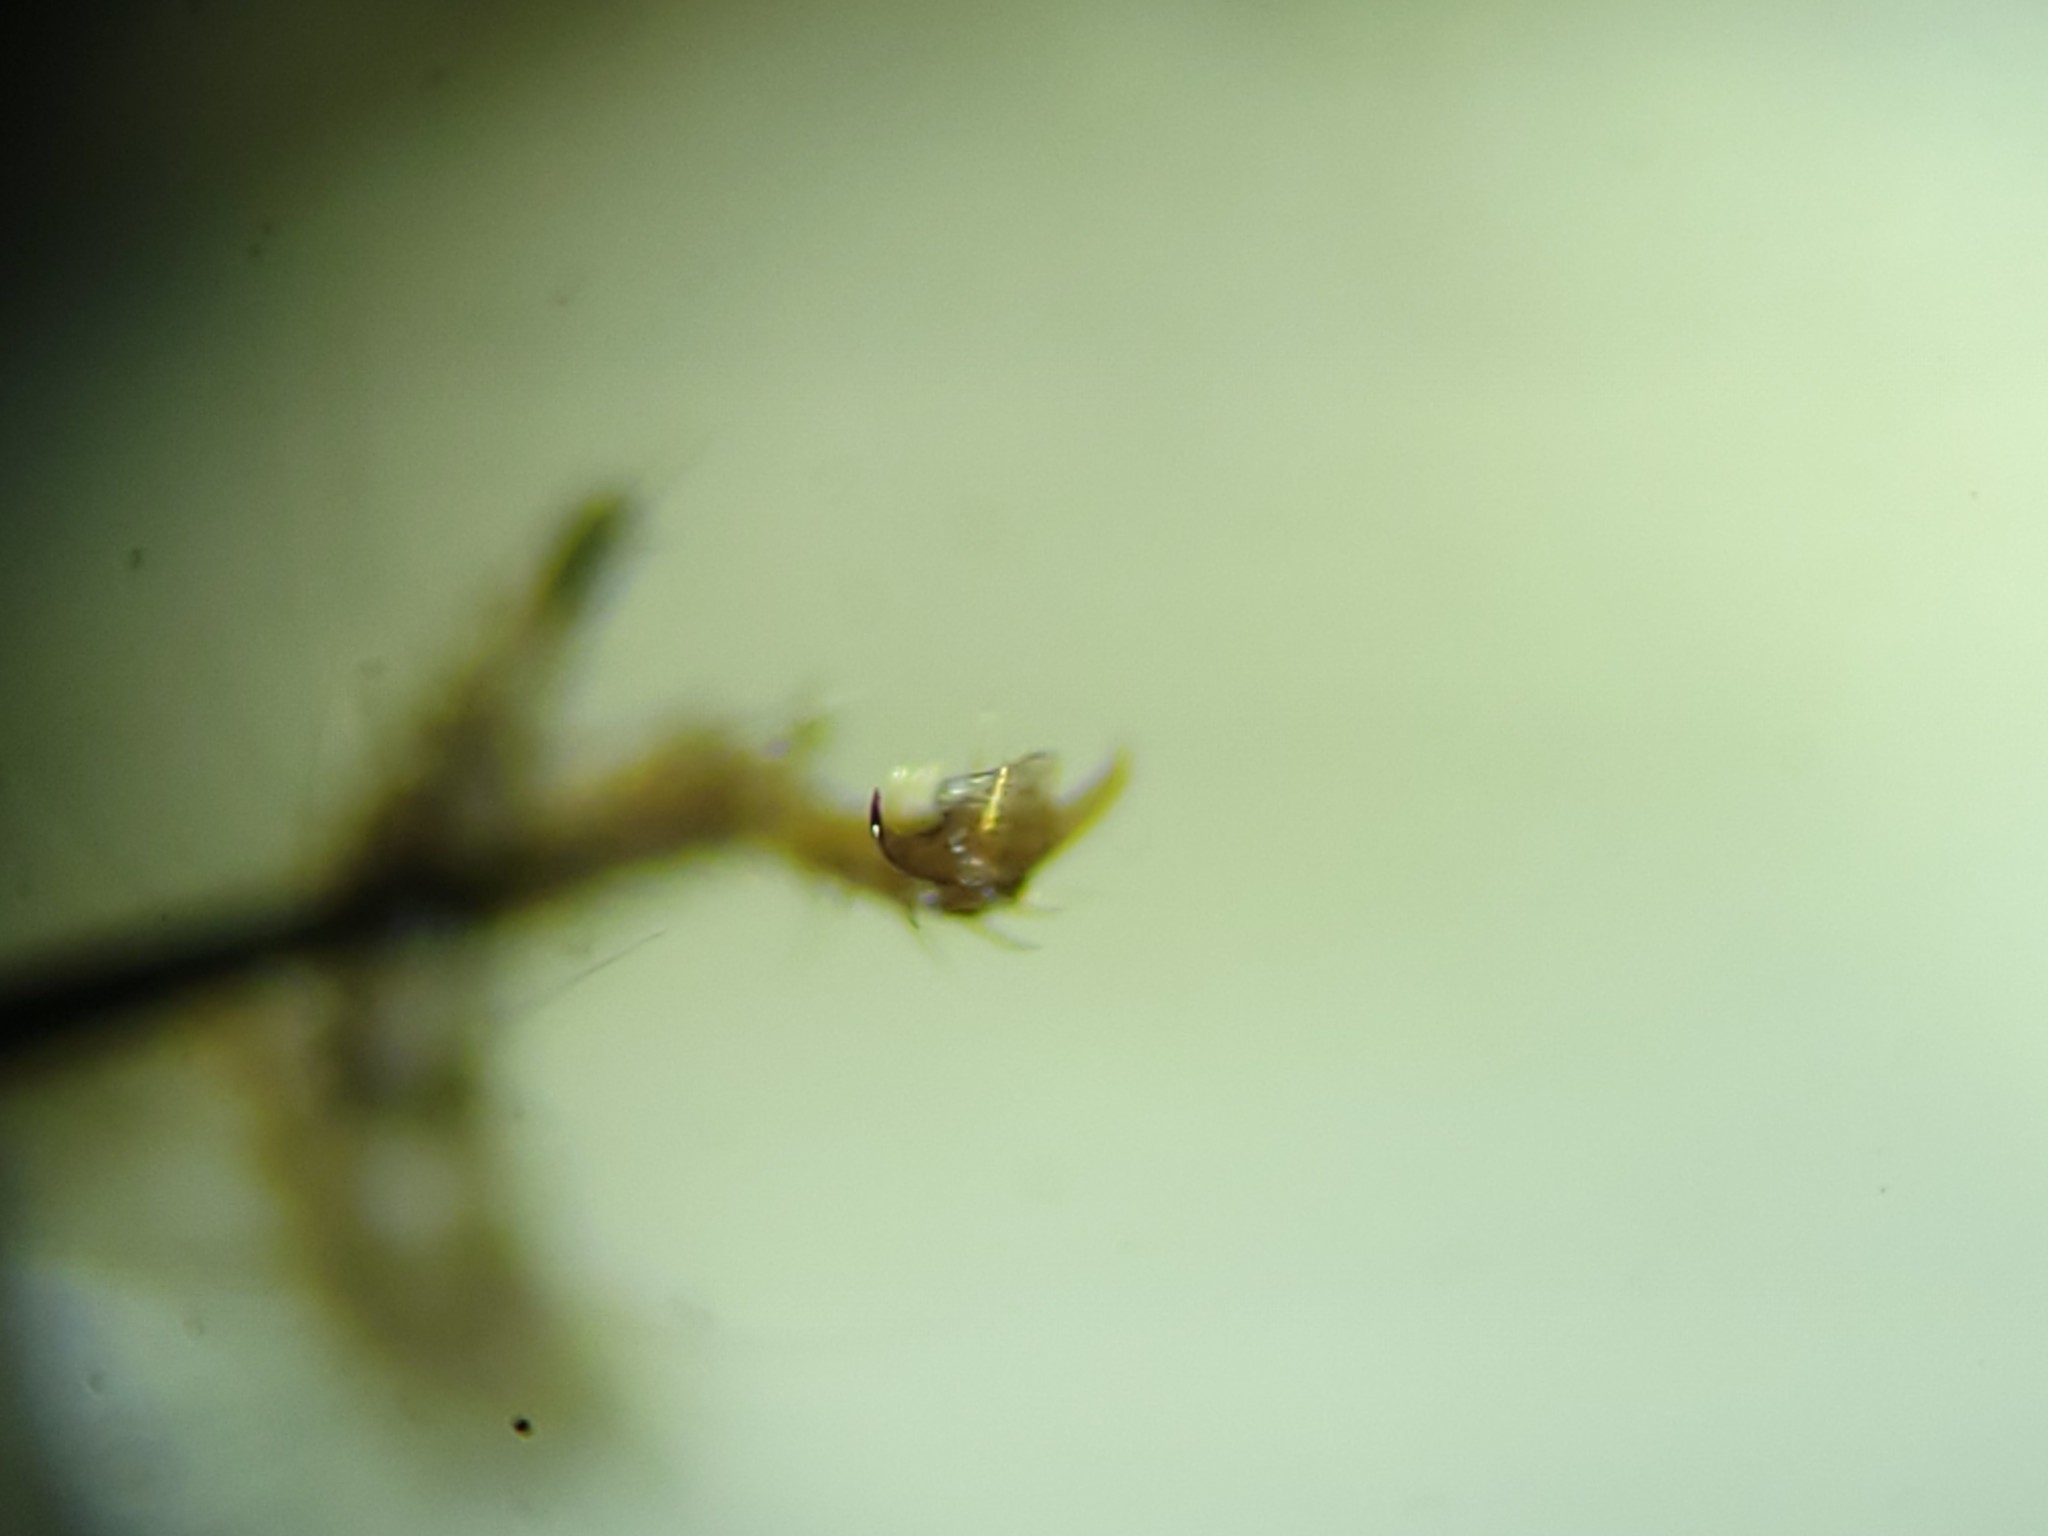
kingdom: Animalia
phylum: Arthropoda
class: Insecta
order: Blattodea
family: Ectobiidae
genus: Neoblattella
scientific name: Neoblattella detersa
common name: Wood cockroach
